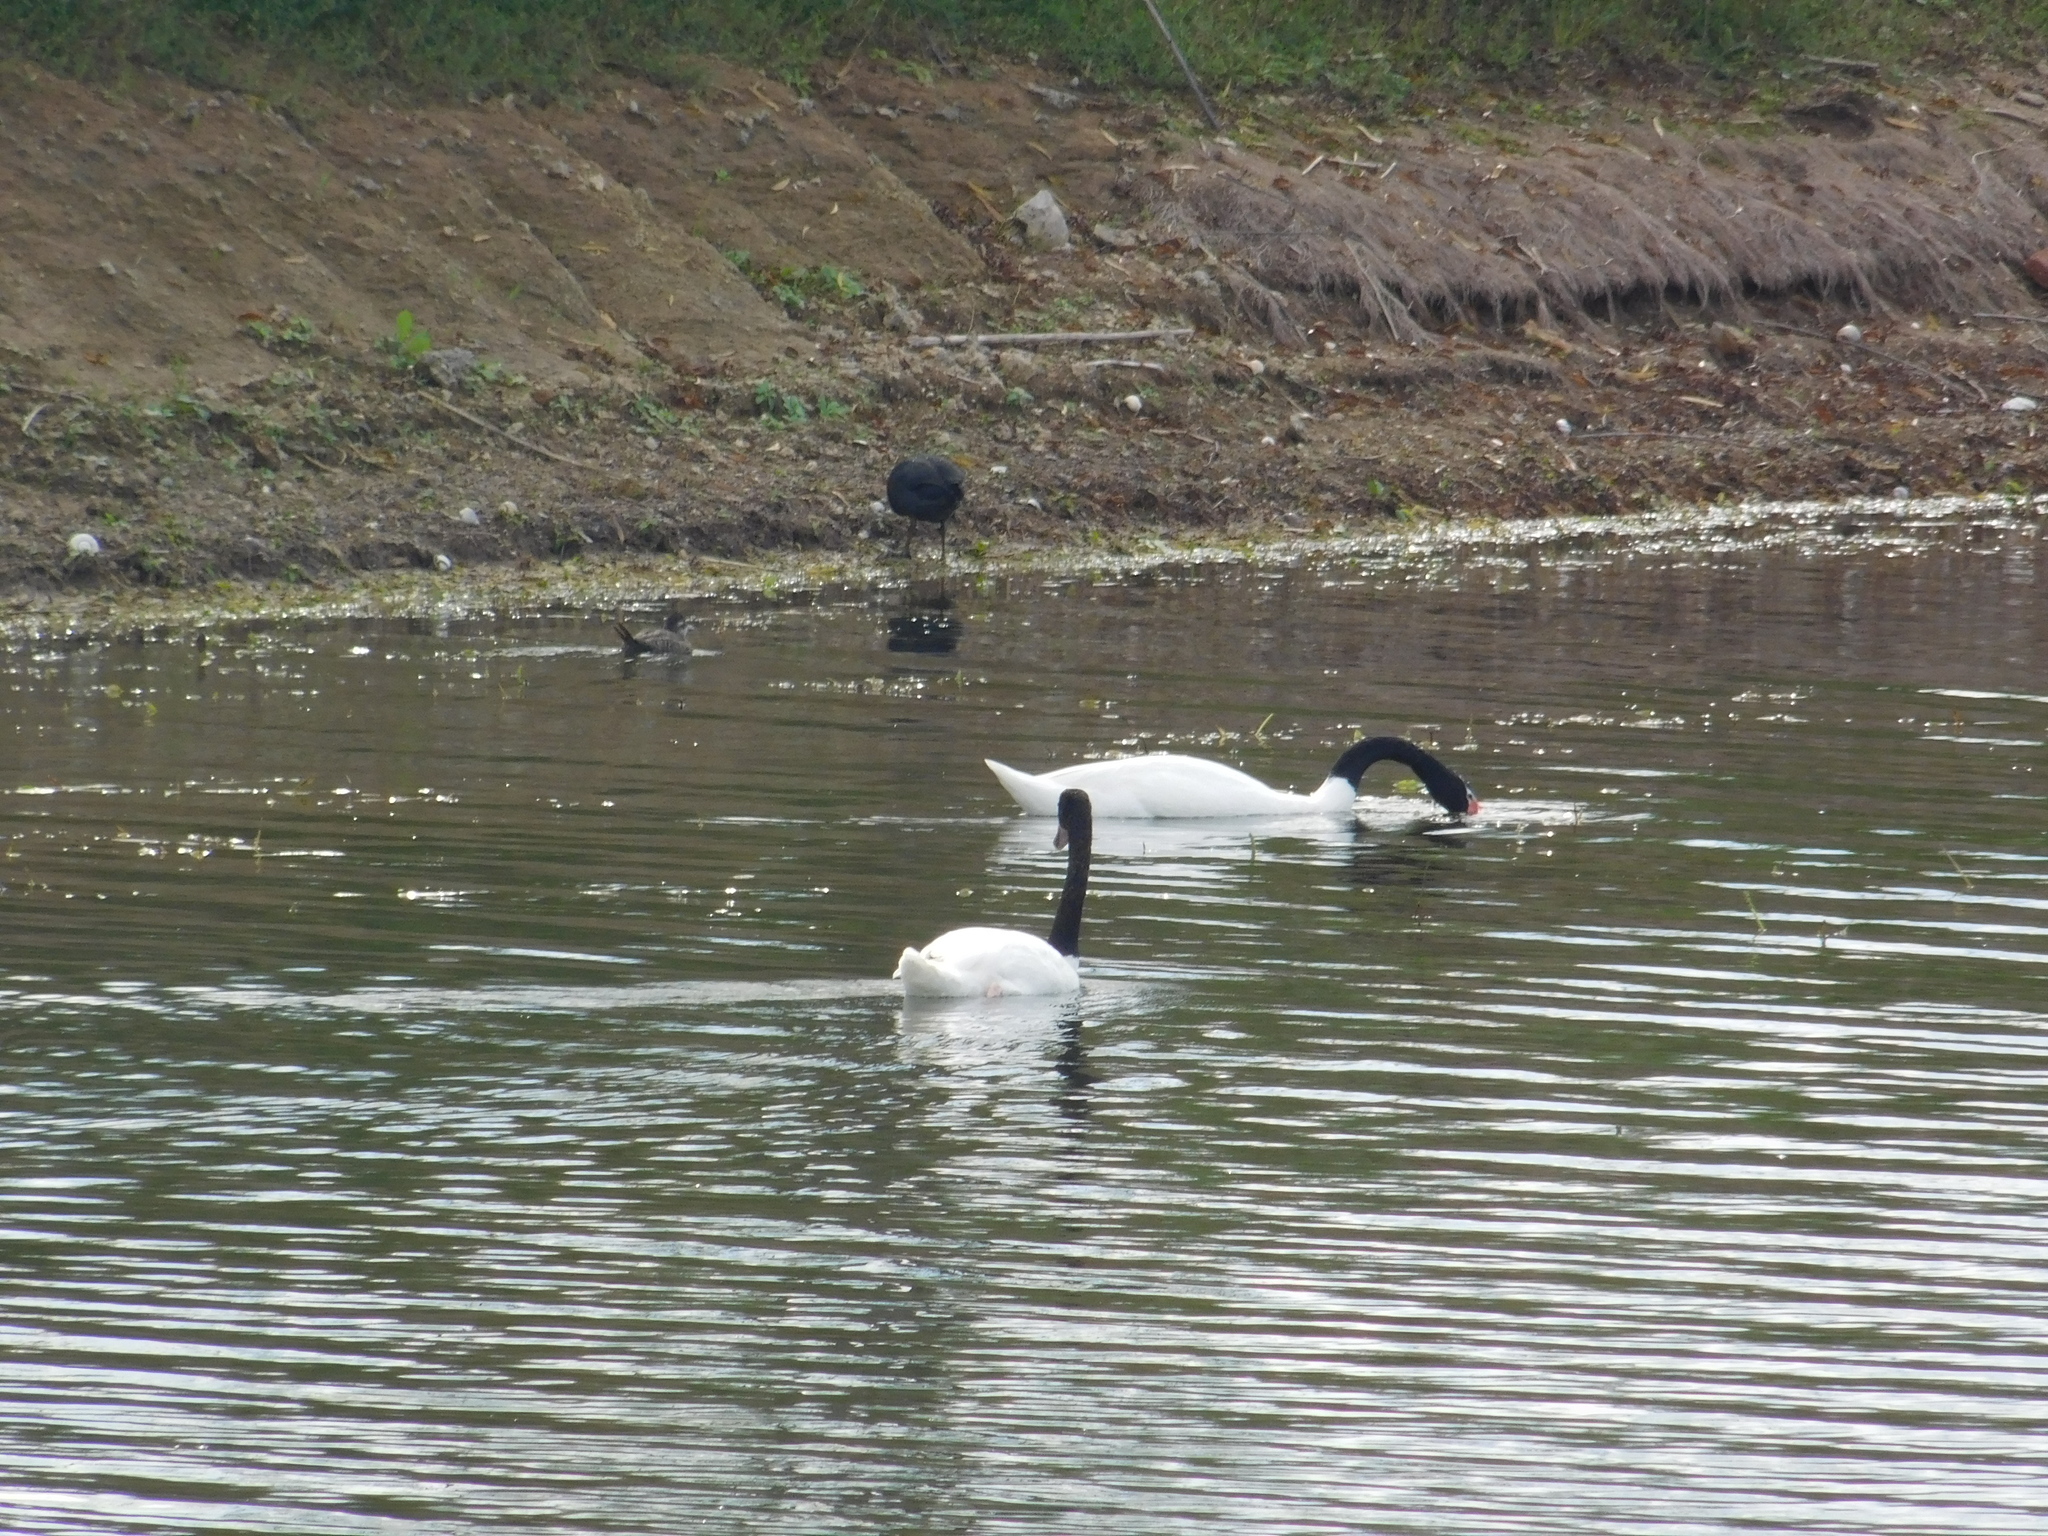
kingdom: Animalia
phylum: Chordata
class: Aves
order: Anseriformes
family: Anatidae
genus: Cygnus
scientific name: Cygnus melancoryphus
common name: Black-necked swan
